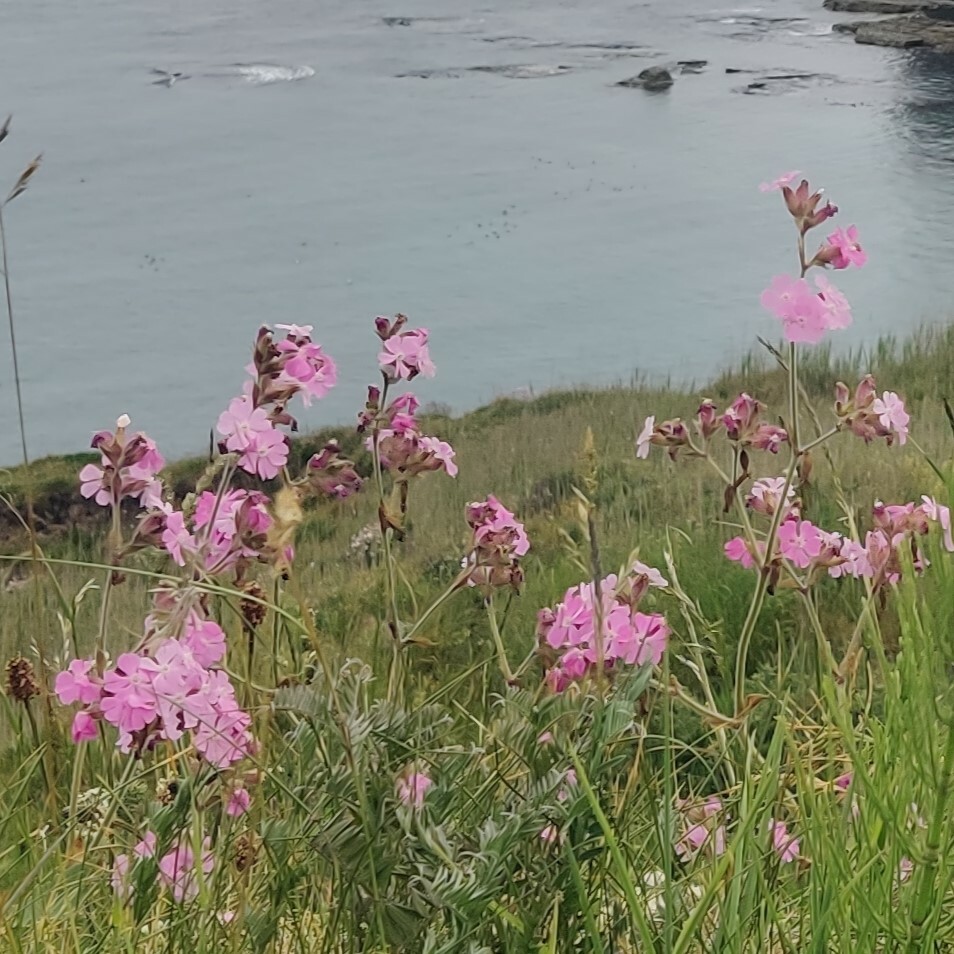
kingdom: Plantae
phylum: Tracheophyta
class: Magnoliopsida
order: Caryophyllales
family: Caryophyllaceae
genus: Silene
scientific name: Silene dioica
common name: Red campion
